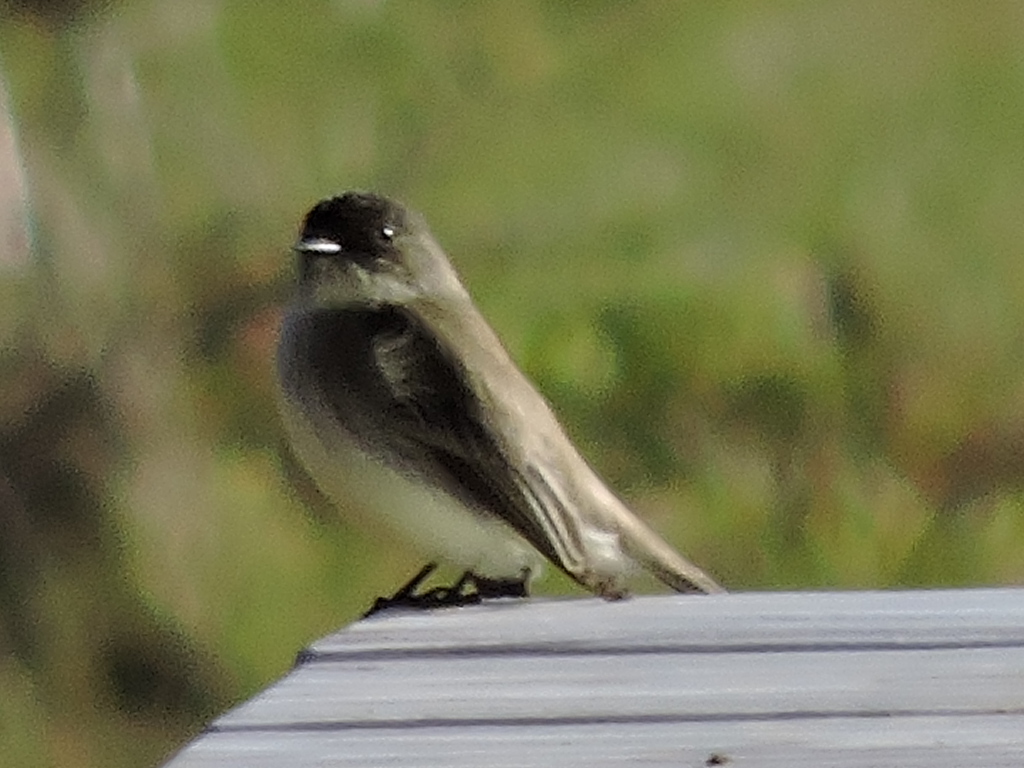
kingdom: Animalia
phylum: Chordata
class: Aves
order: Passeriformes
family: Tyrannidae
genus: Sayornis
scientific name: Sayornis phoebe
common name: Eastern phoebe
